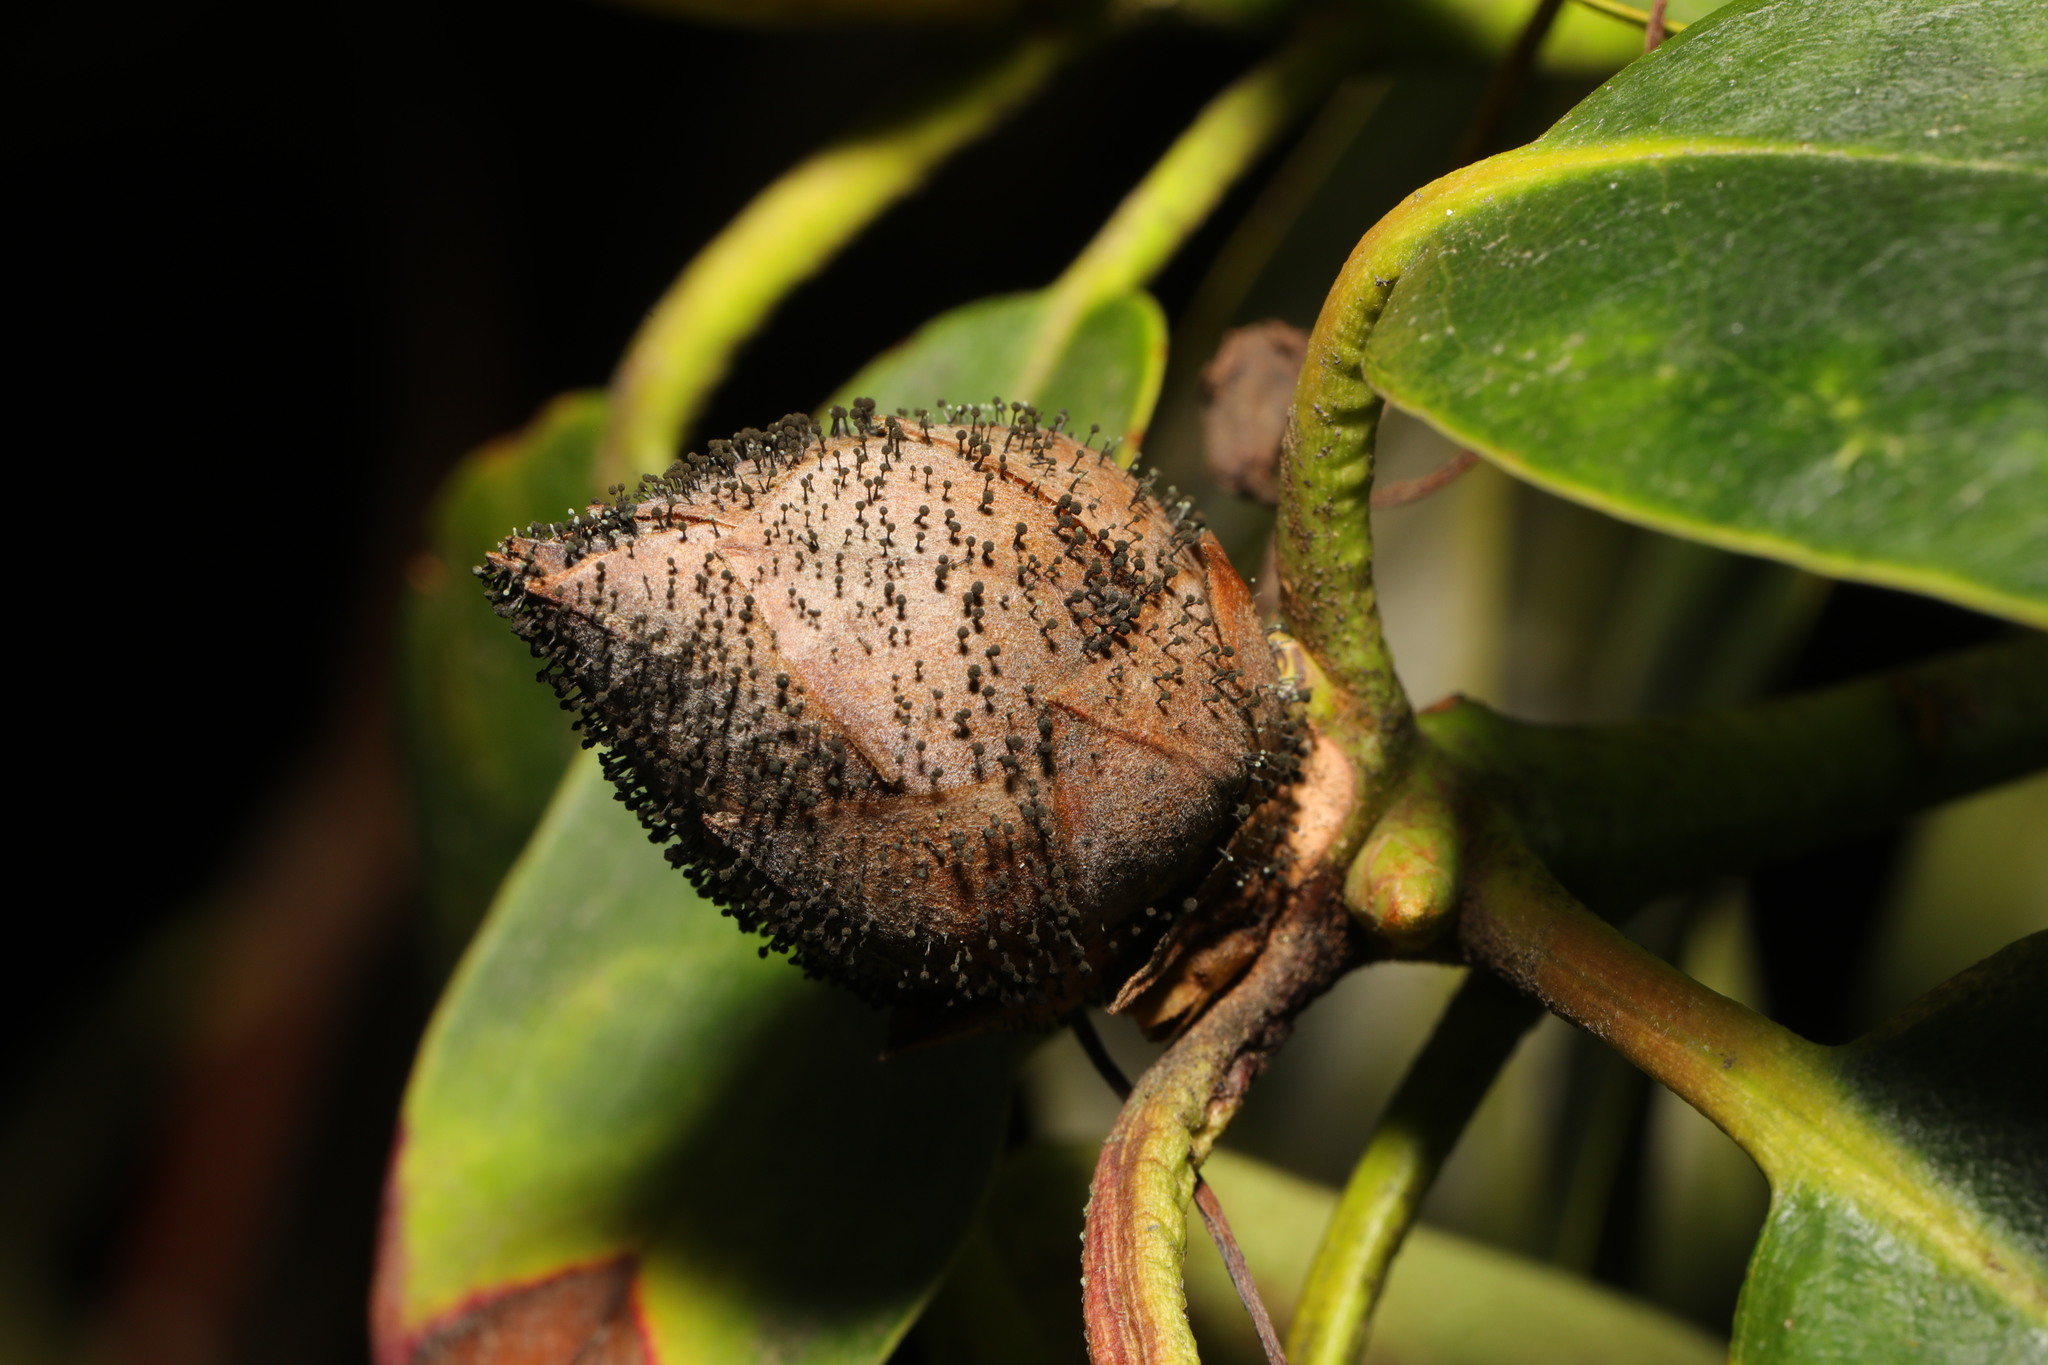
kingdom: Fungi
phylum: Ascomycota
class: Dothideomycetes
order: Pleosporales
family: Melanommataceae
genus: Seifertia
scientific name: Seifertia azaleae
